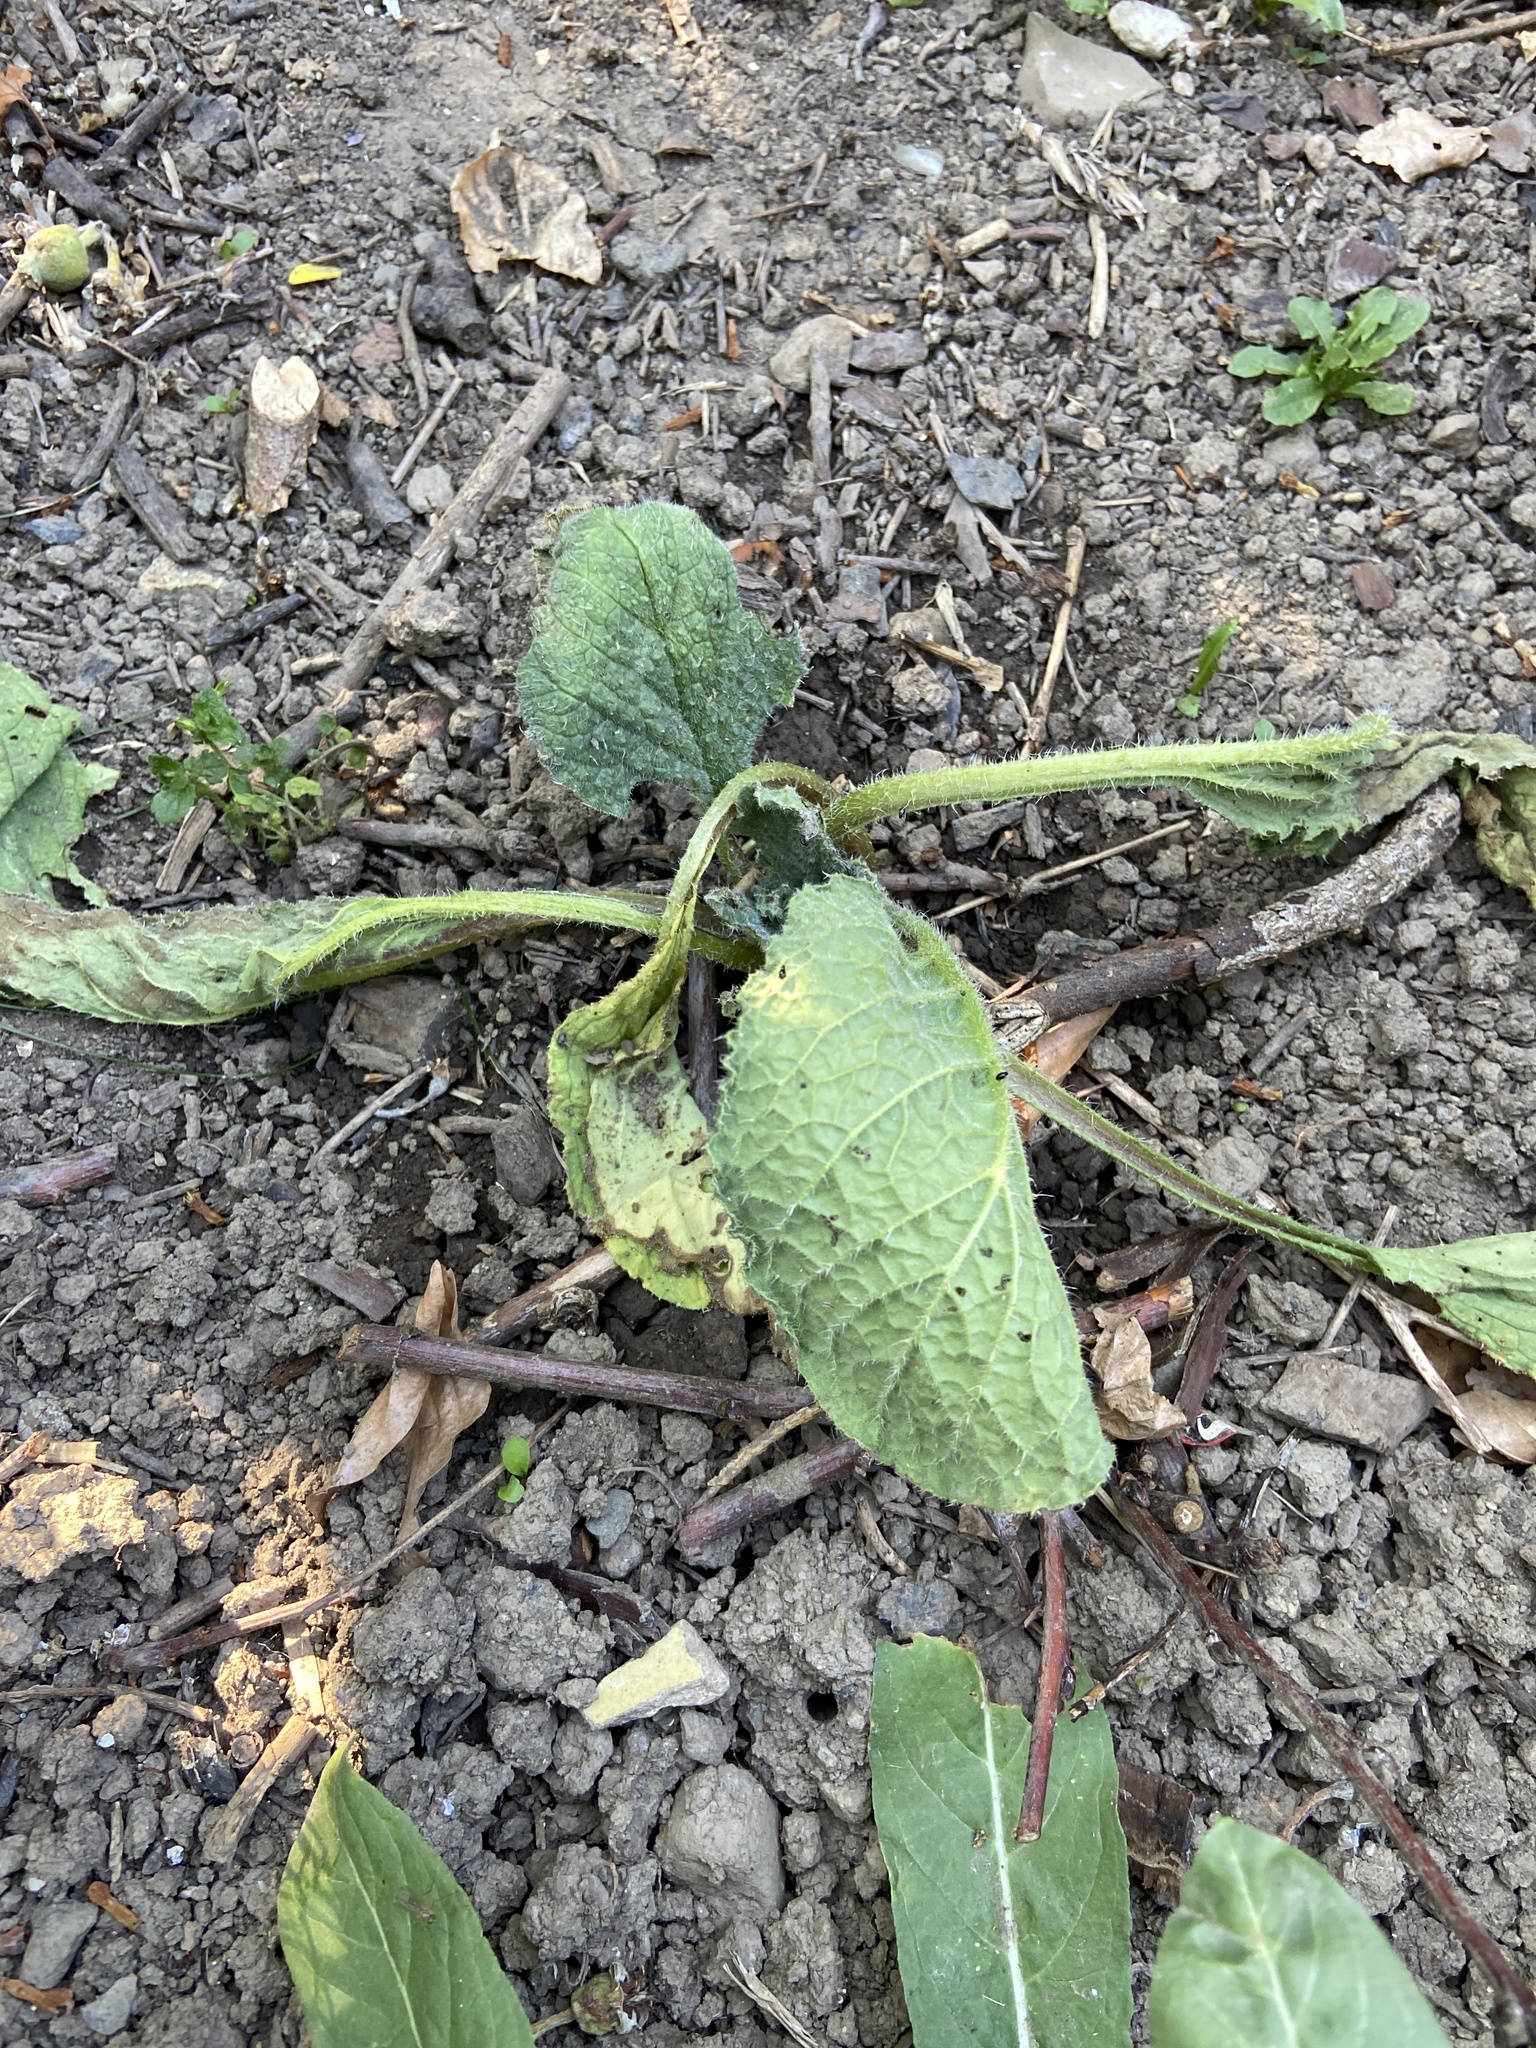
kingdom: Plantae
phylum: Tracheophyta
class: Magnoliopsida
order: Boraginales
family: Boraginaceae
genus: Borago
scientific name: Borago officinalis
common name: Borage
